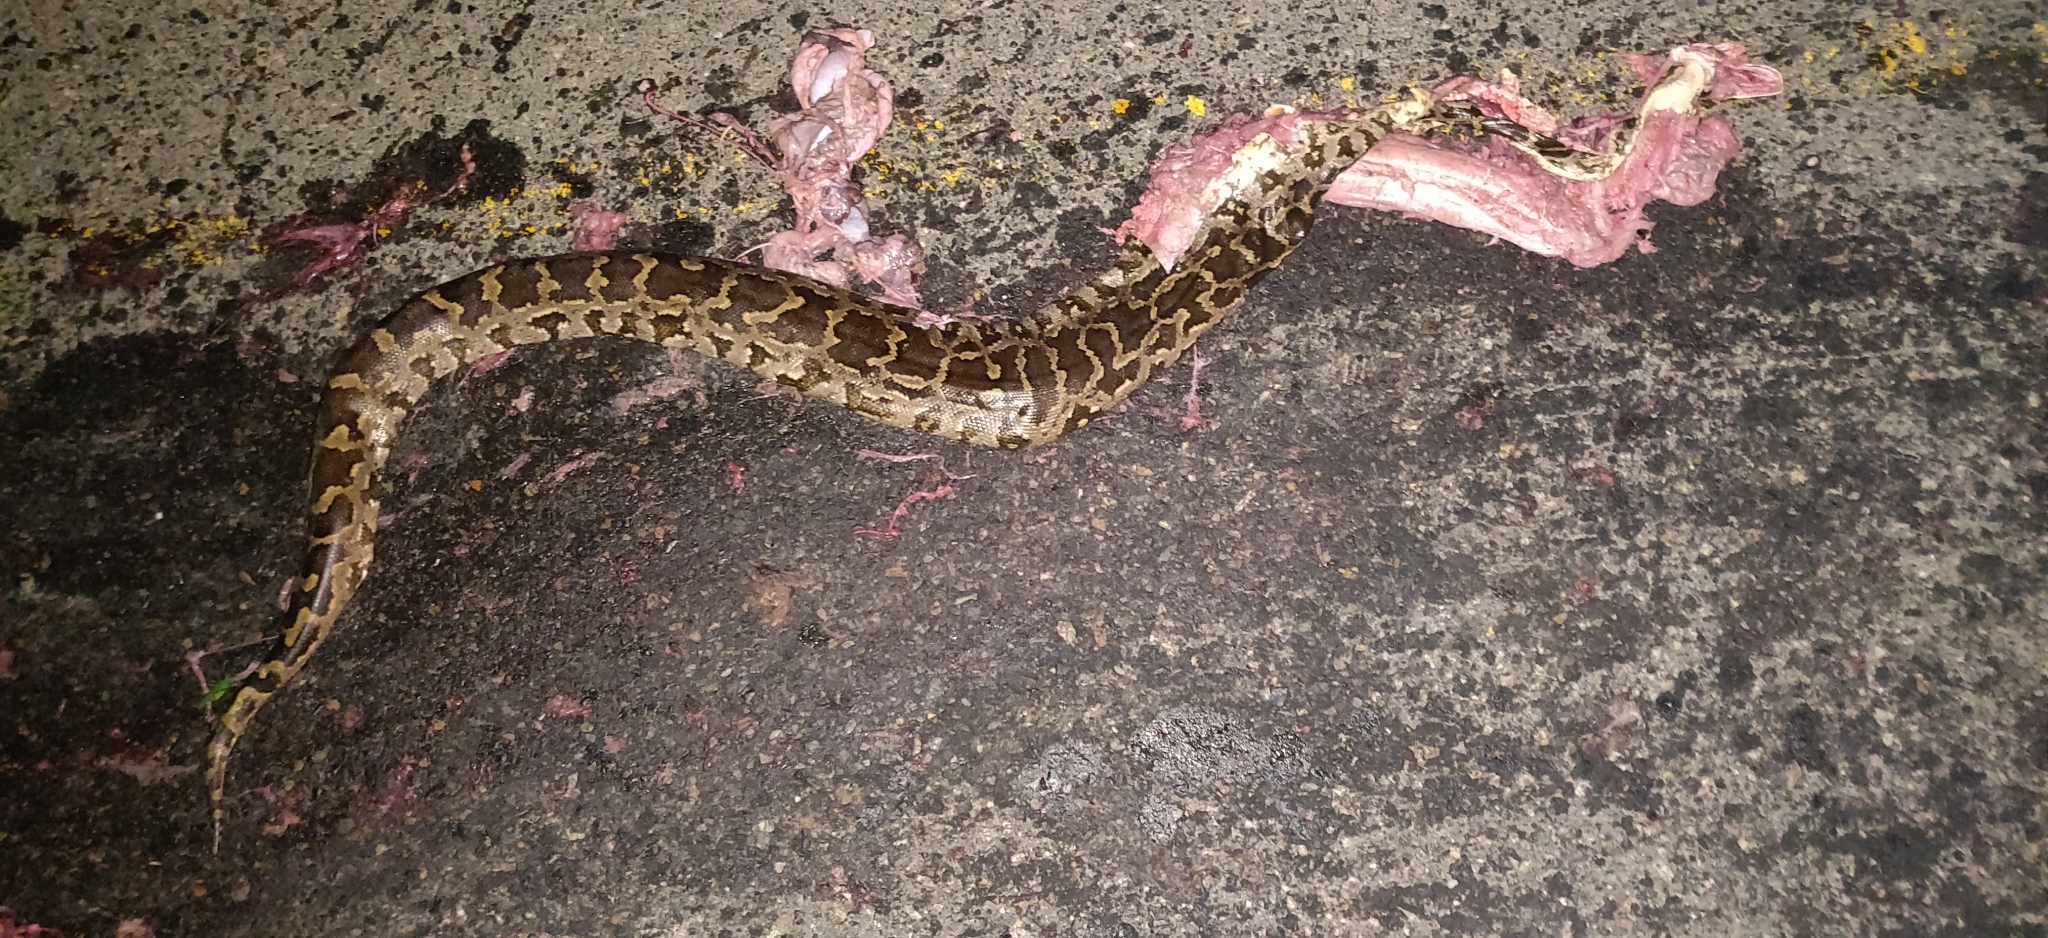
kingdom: Animalia
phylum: Chordata
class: Squamata
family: Pythonidae
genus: Python
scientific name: Python molurus
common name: Indian rock python
